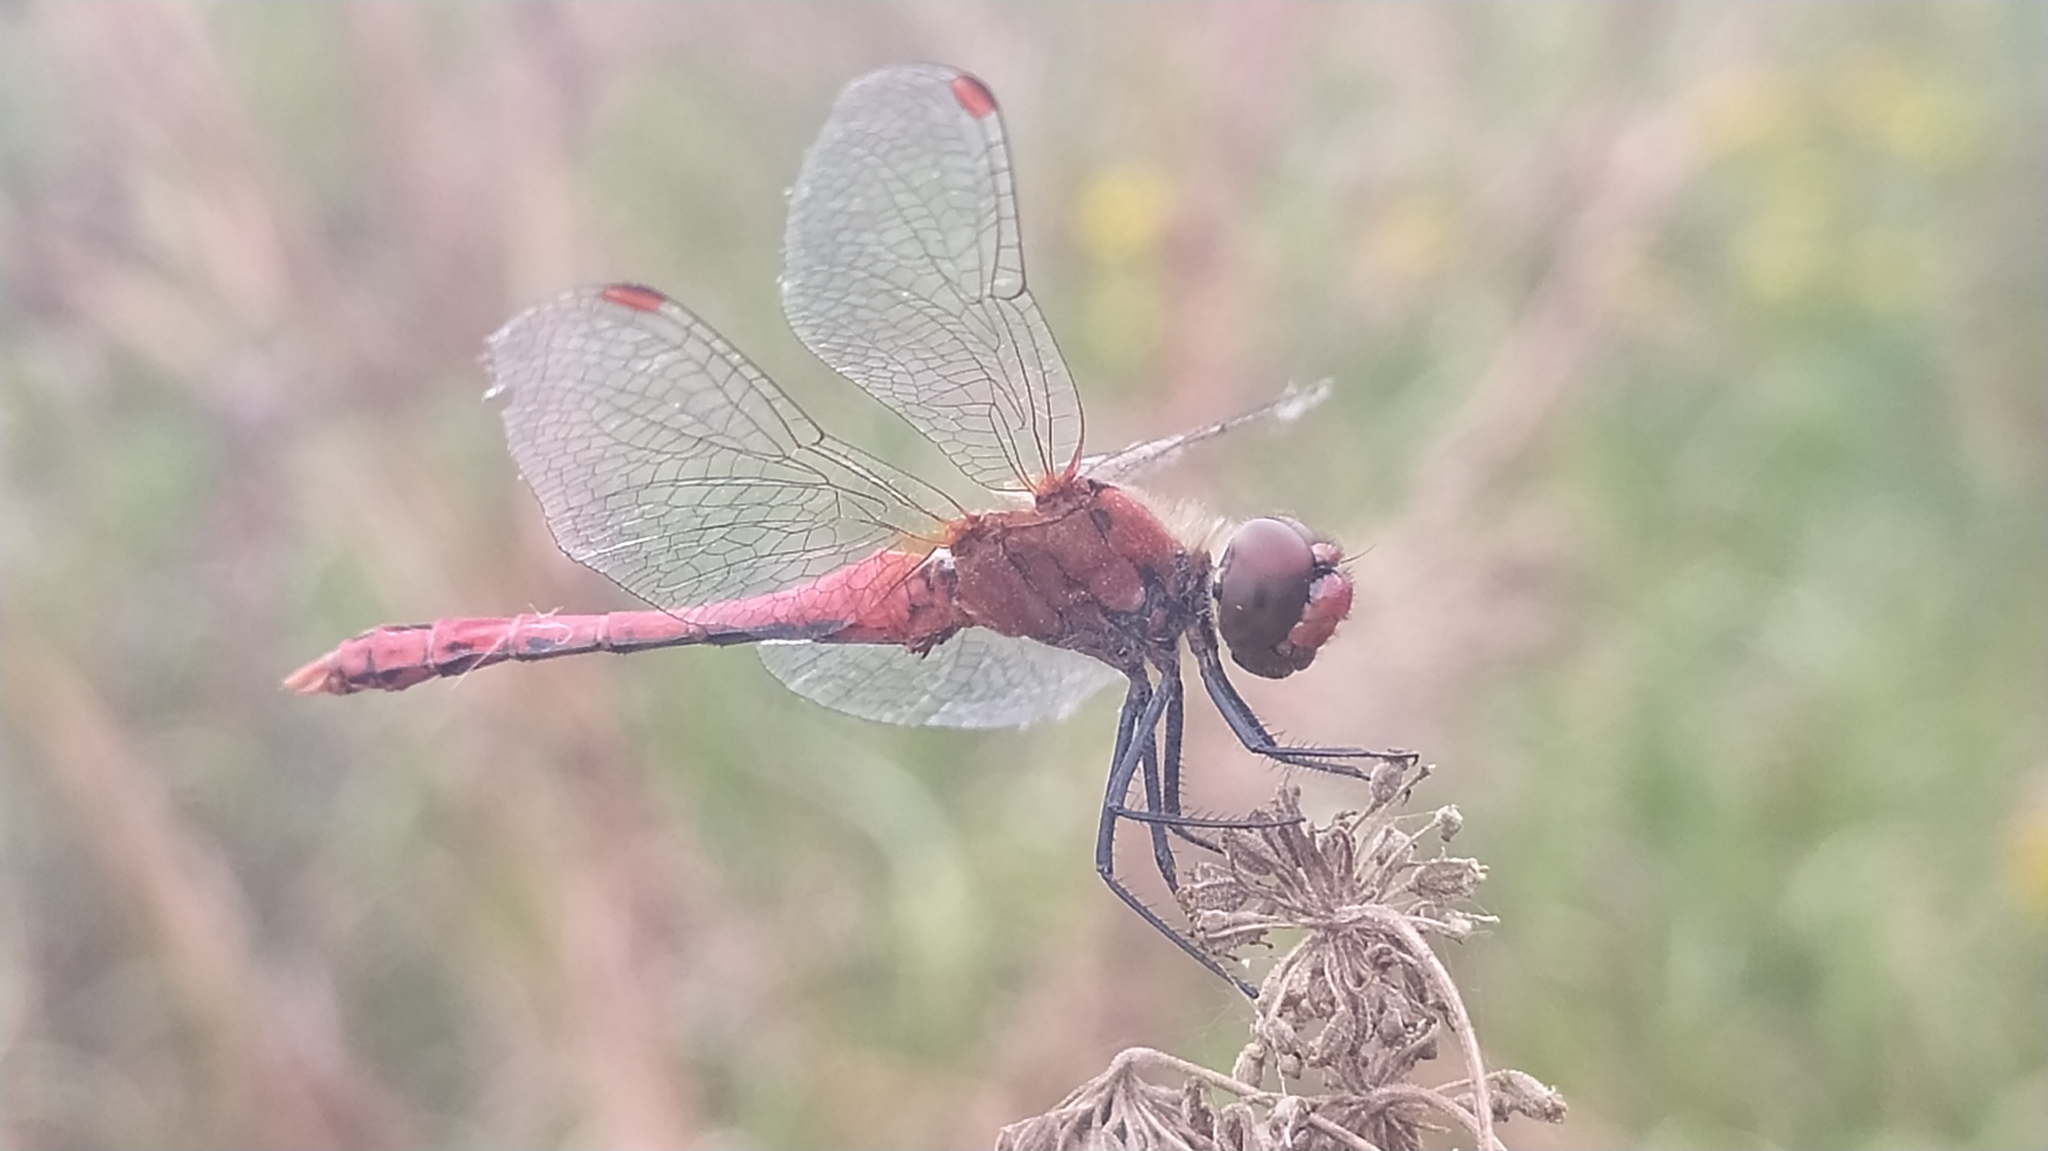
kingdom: Animalia
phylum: Arthropoda
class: Insecta
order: Odonata
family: Libellulidae
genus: Sympetrum
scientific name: Sympetrum sanguineum
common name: Ruddy darter
